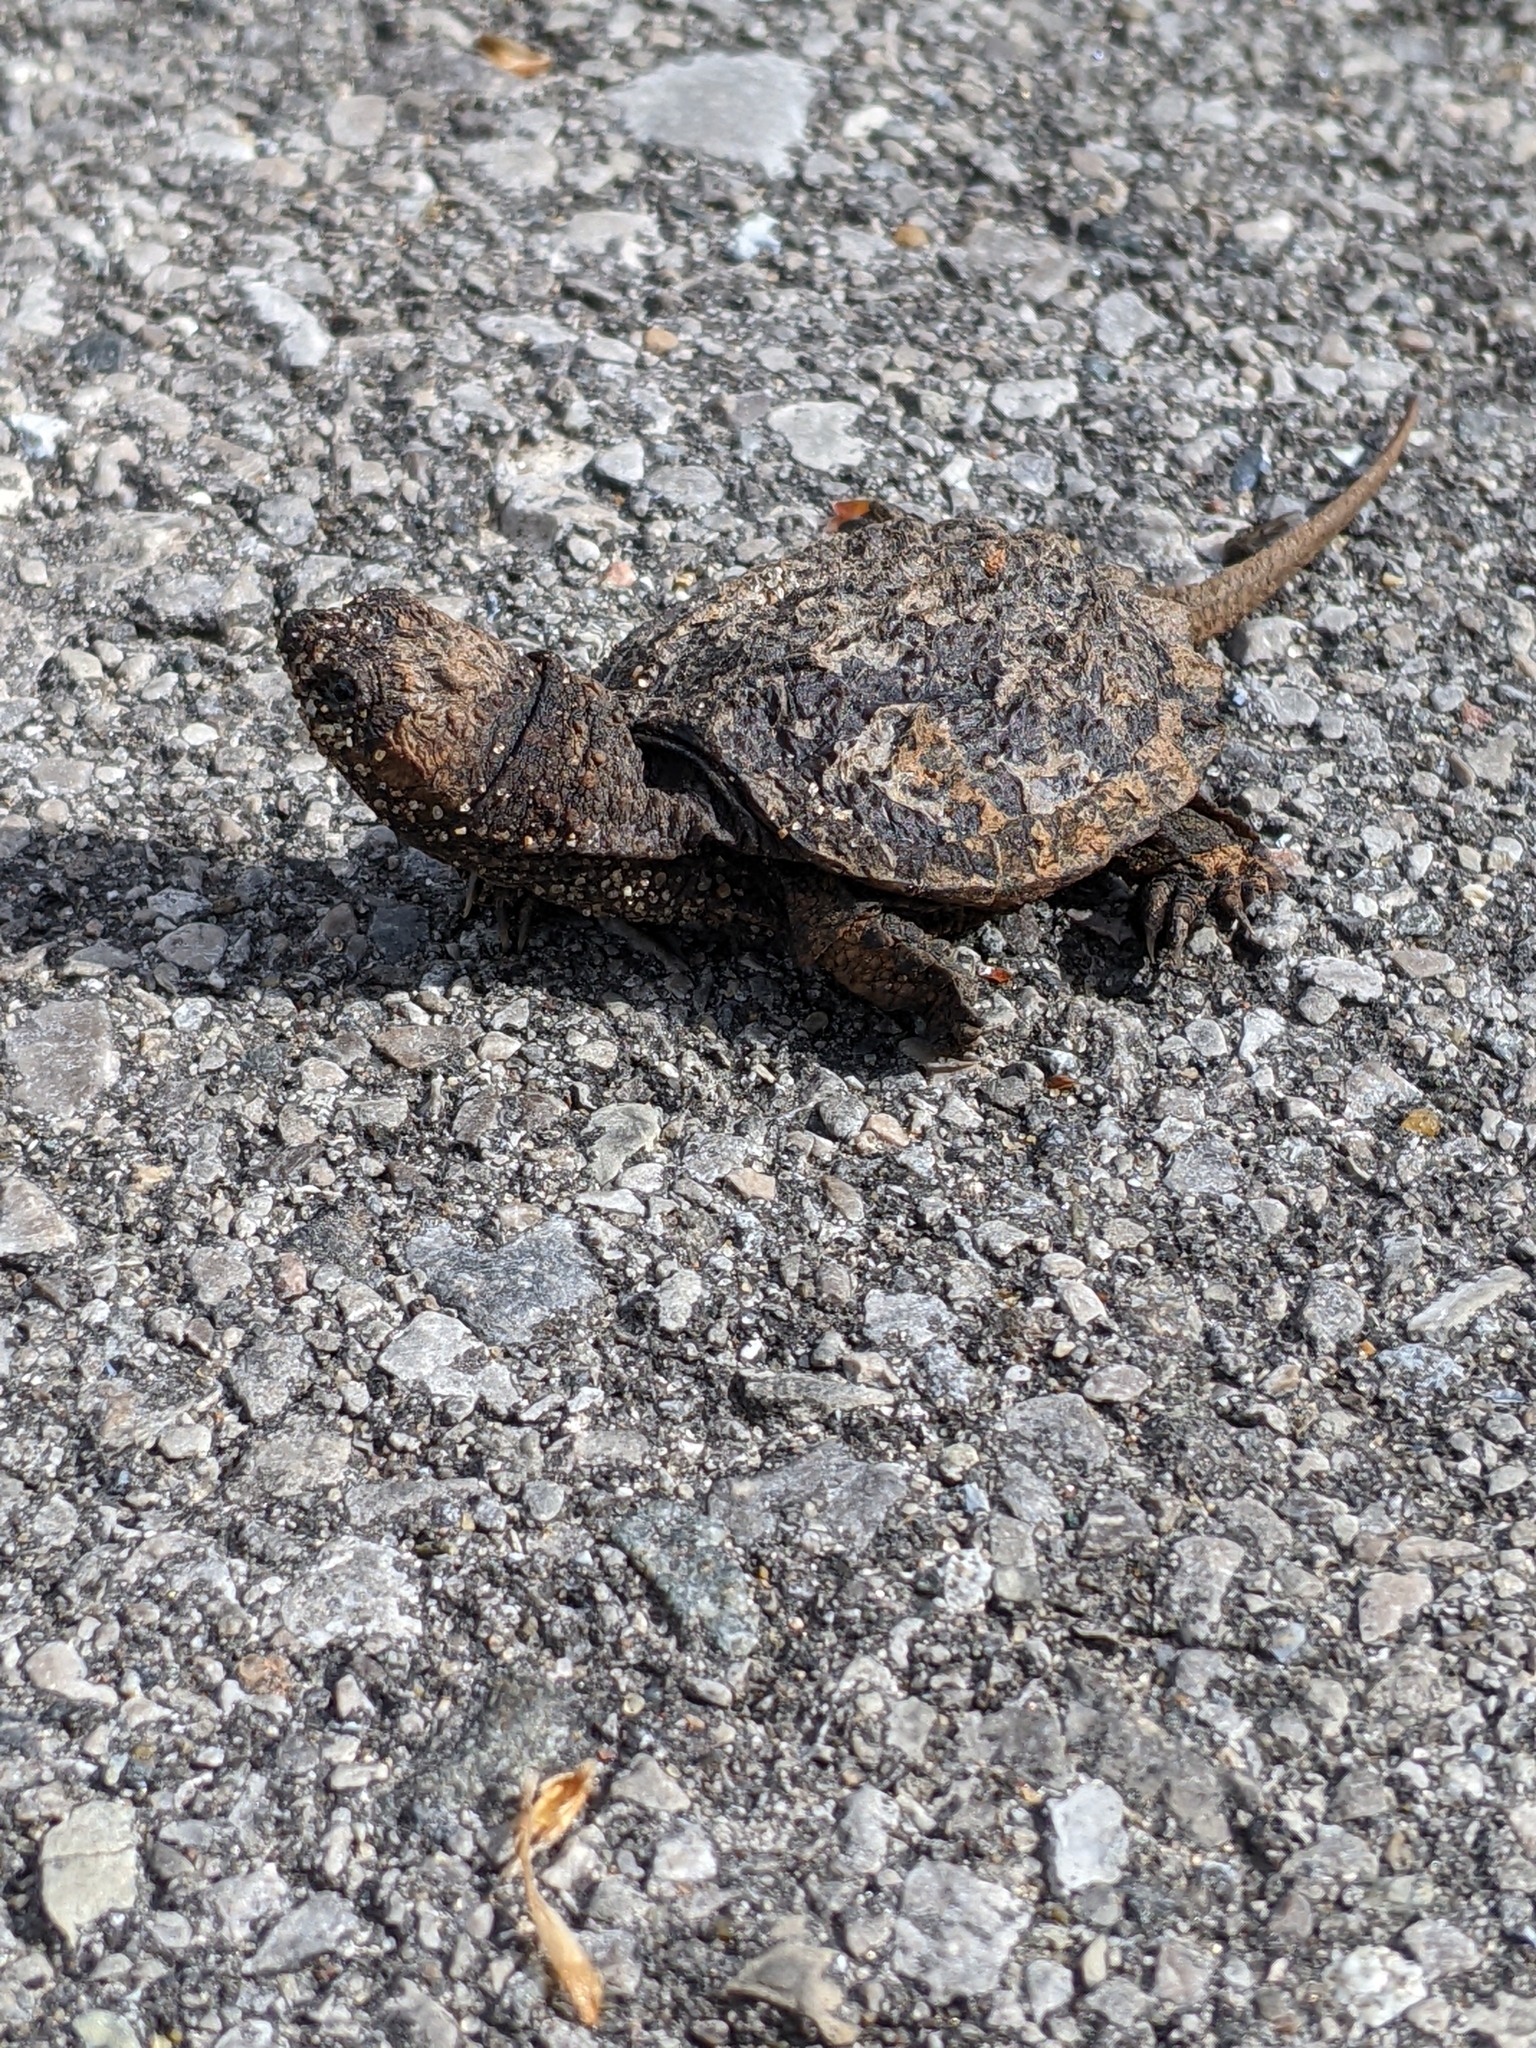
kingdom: Animalia
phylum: Chordata
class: Testudines
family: Chelydridae
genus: Chelydra
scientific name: Chelydra serpentina
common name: Common snapping turtle
